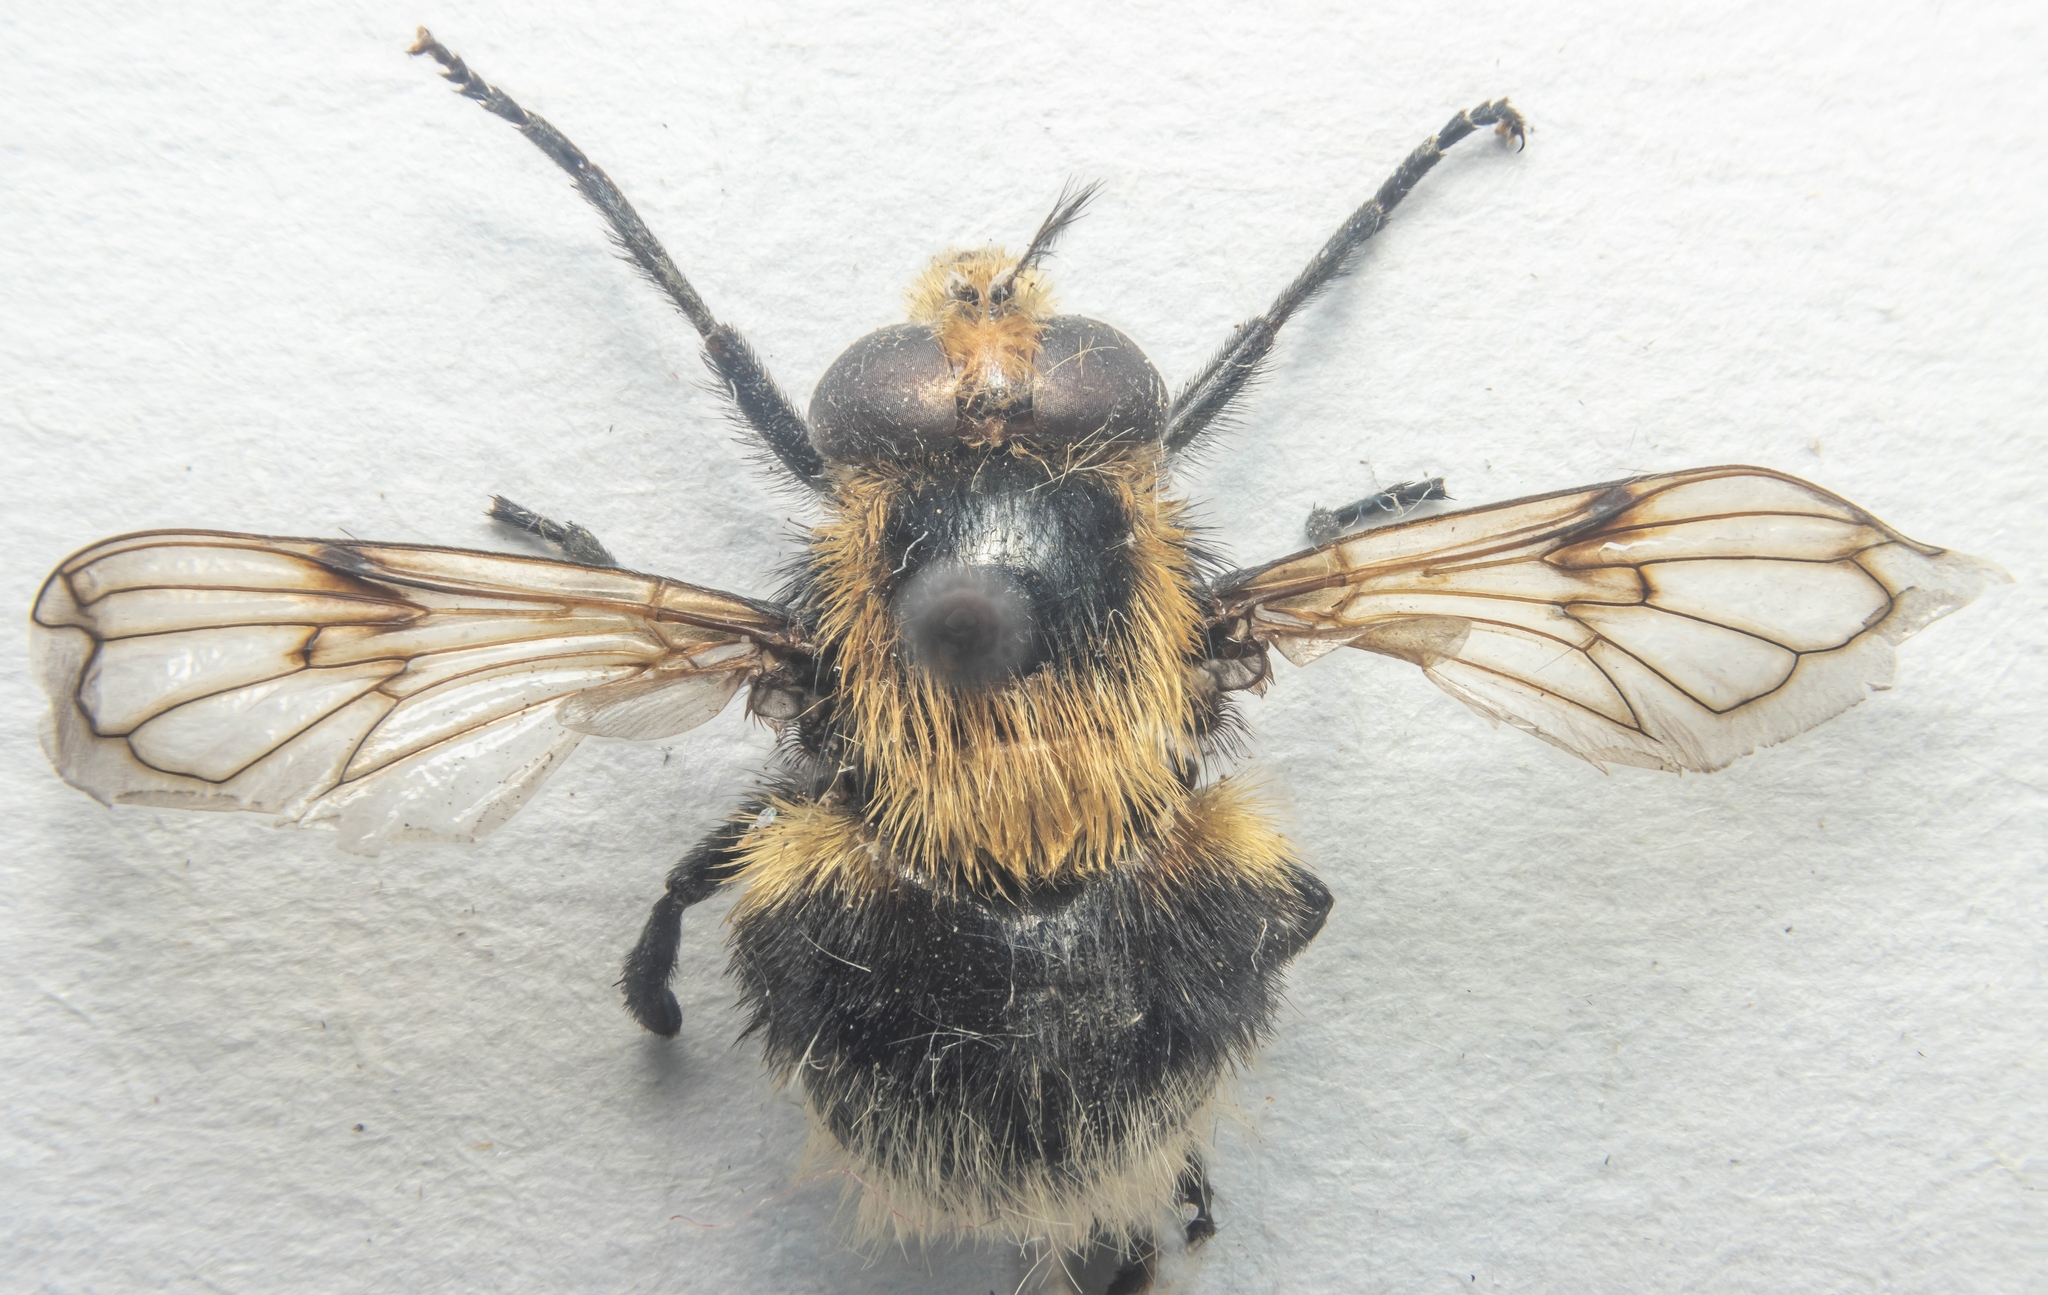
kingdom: Animalia
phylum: Arthropoda
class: Insecta
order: Diptera
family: Syrphidae
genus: Volucella
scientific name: Volucella bombylans
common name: Bumble bee hover fly
